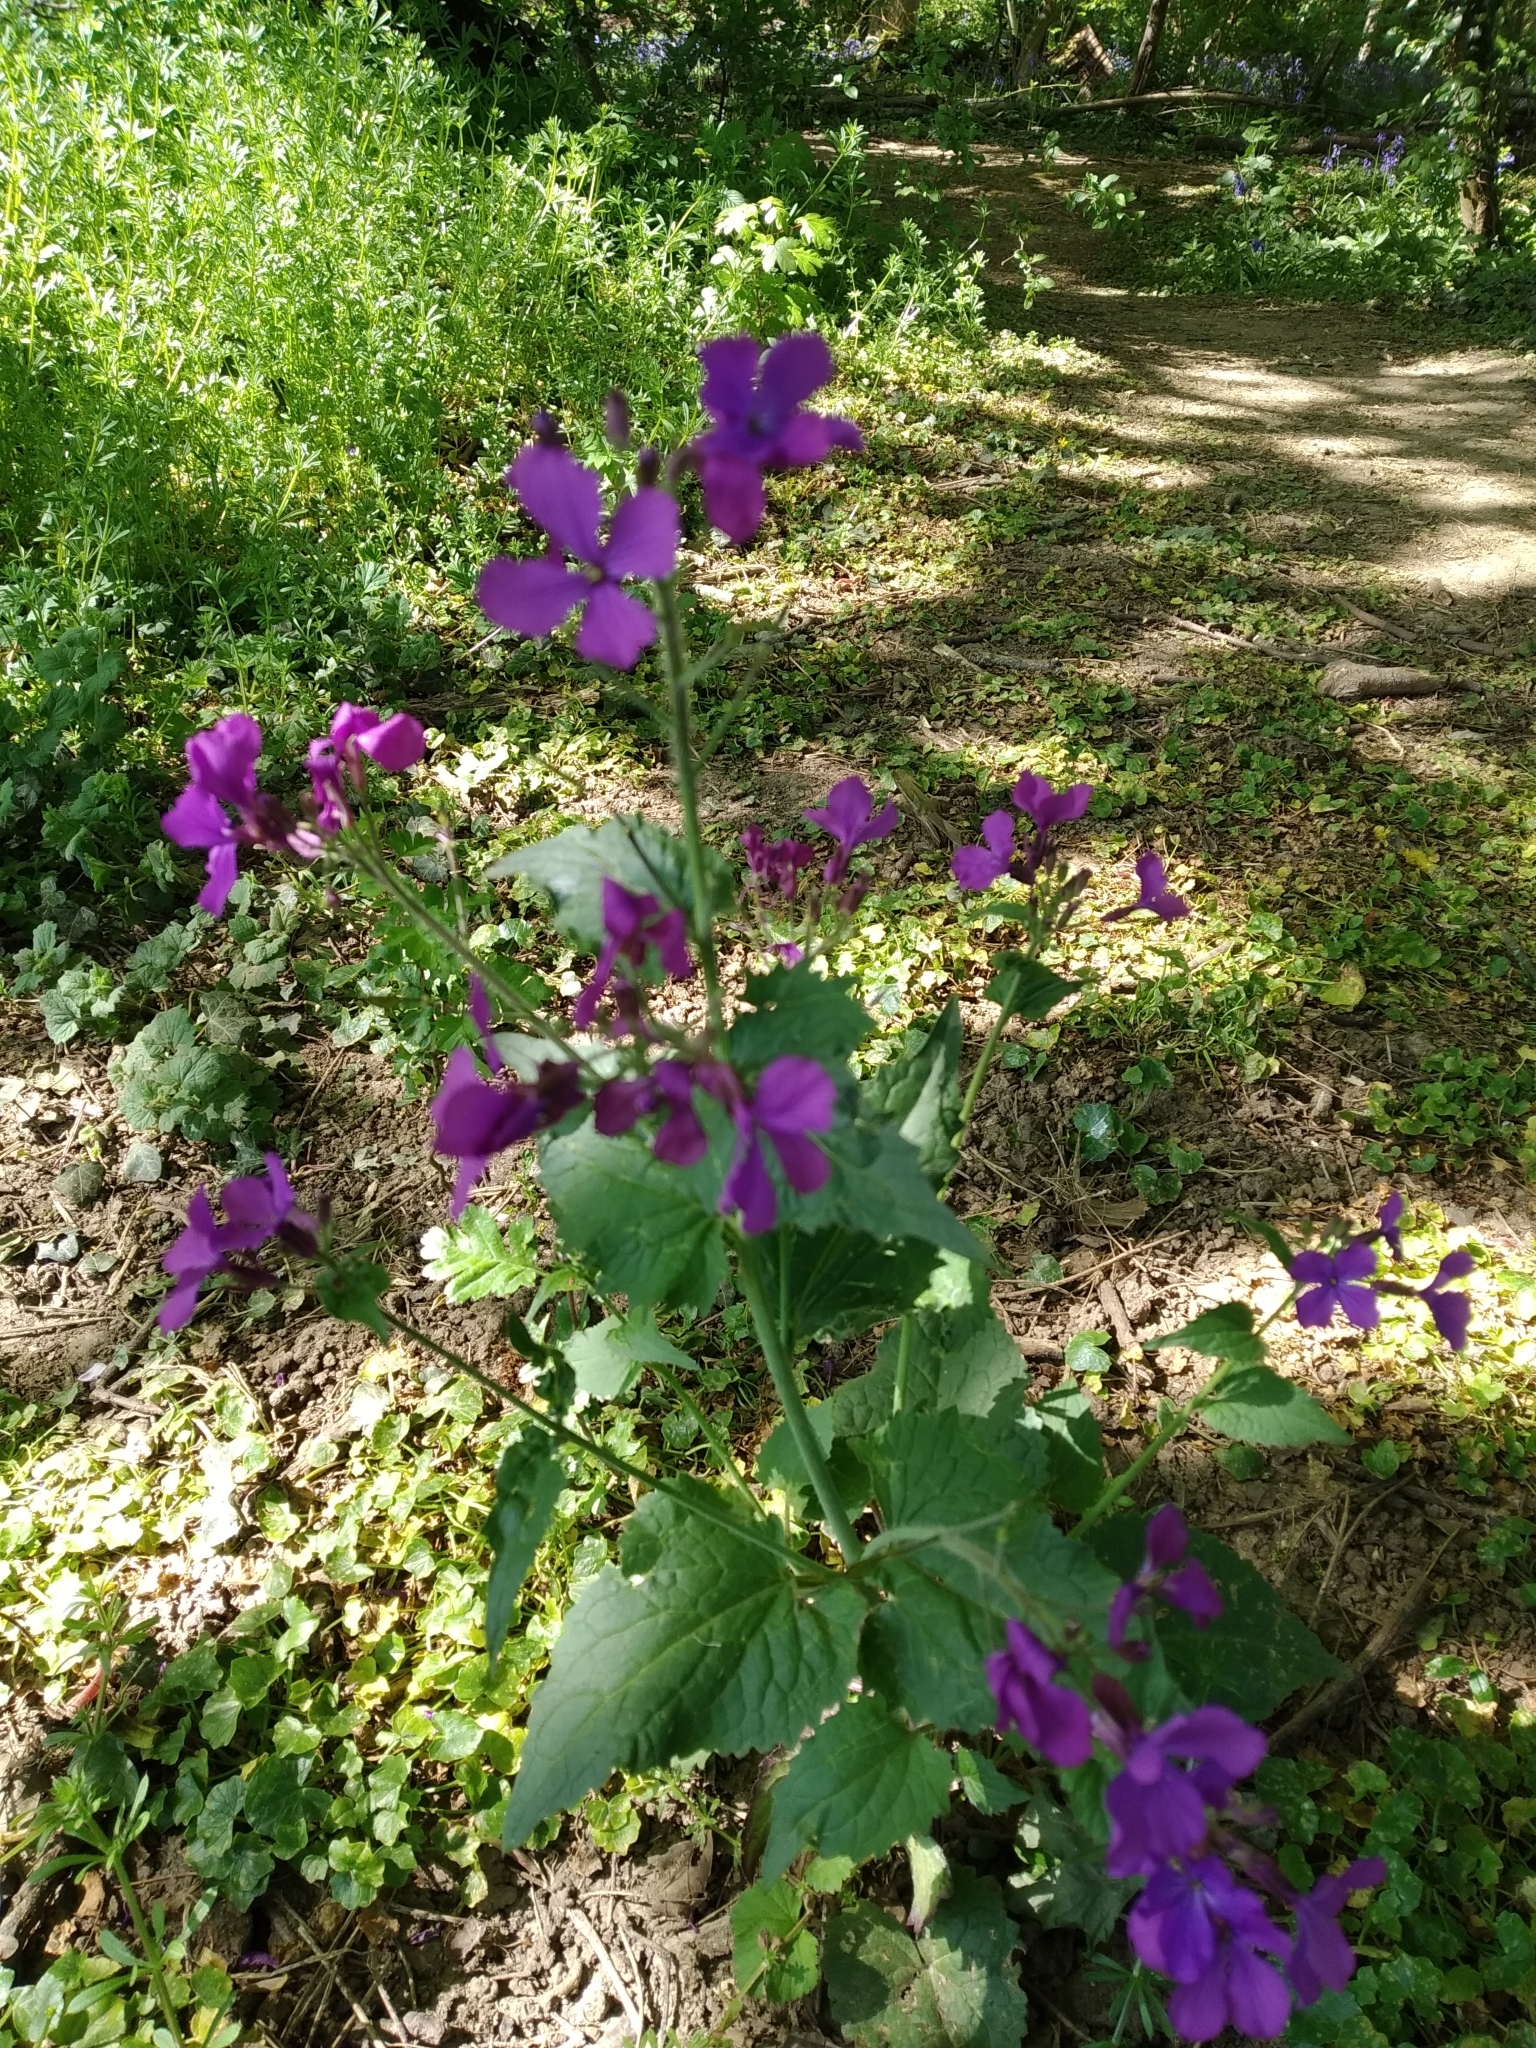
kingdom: Plantae
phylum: Tracheophyta
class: Magnoliopsida
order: Brassicales
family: Brassicaceae
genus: Lunaria
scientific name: Lunaria annua
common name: Honesty
